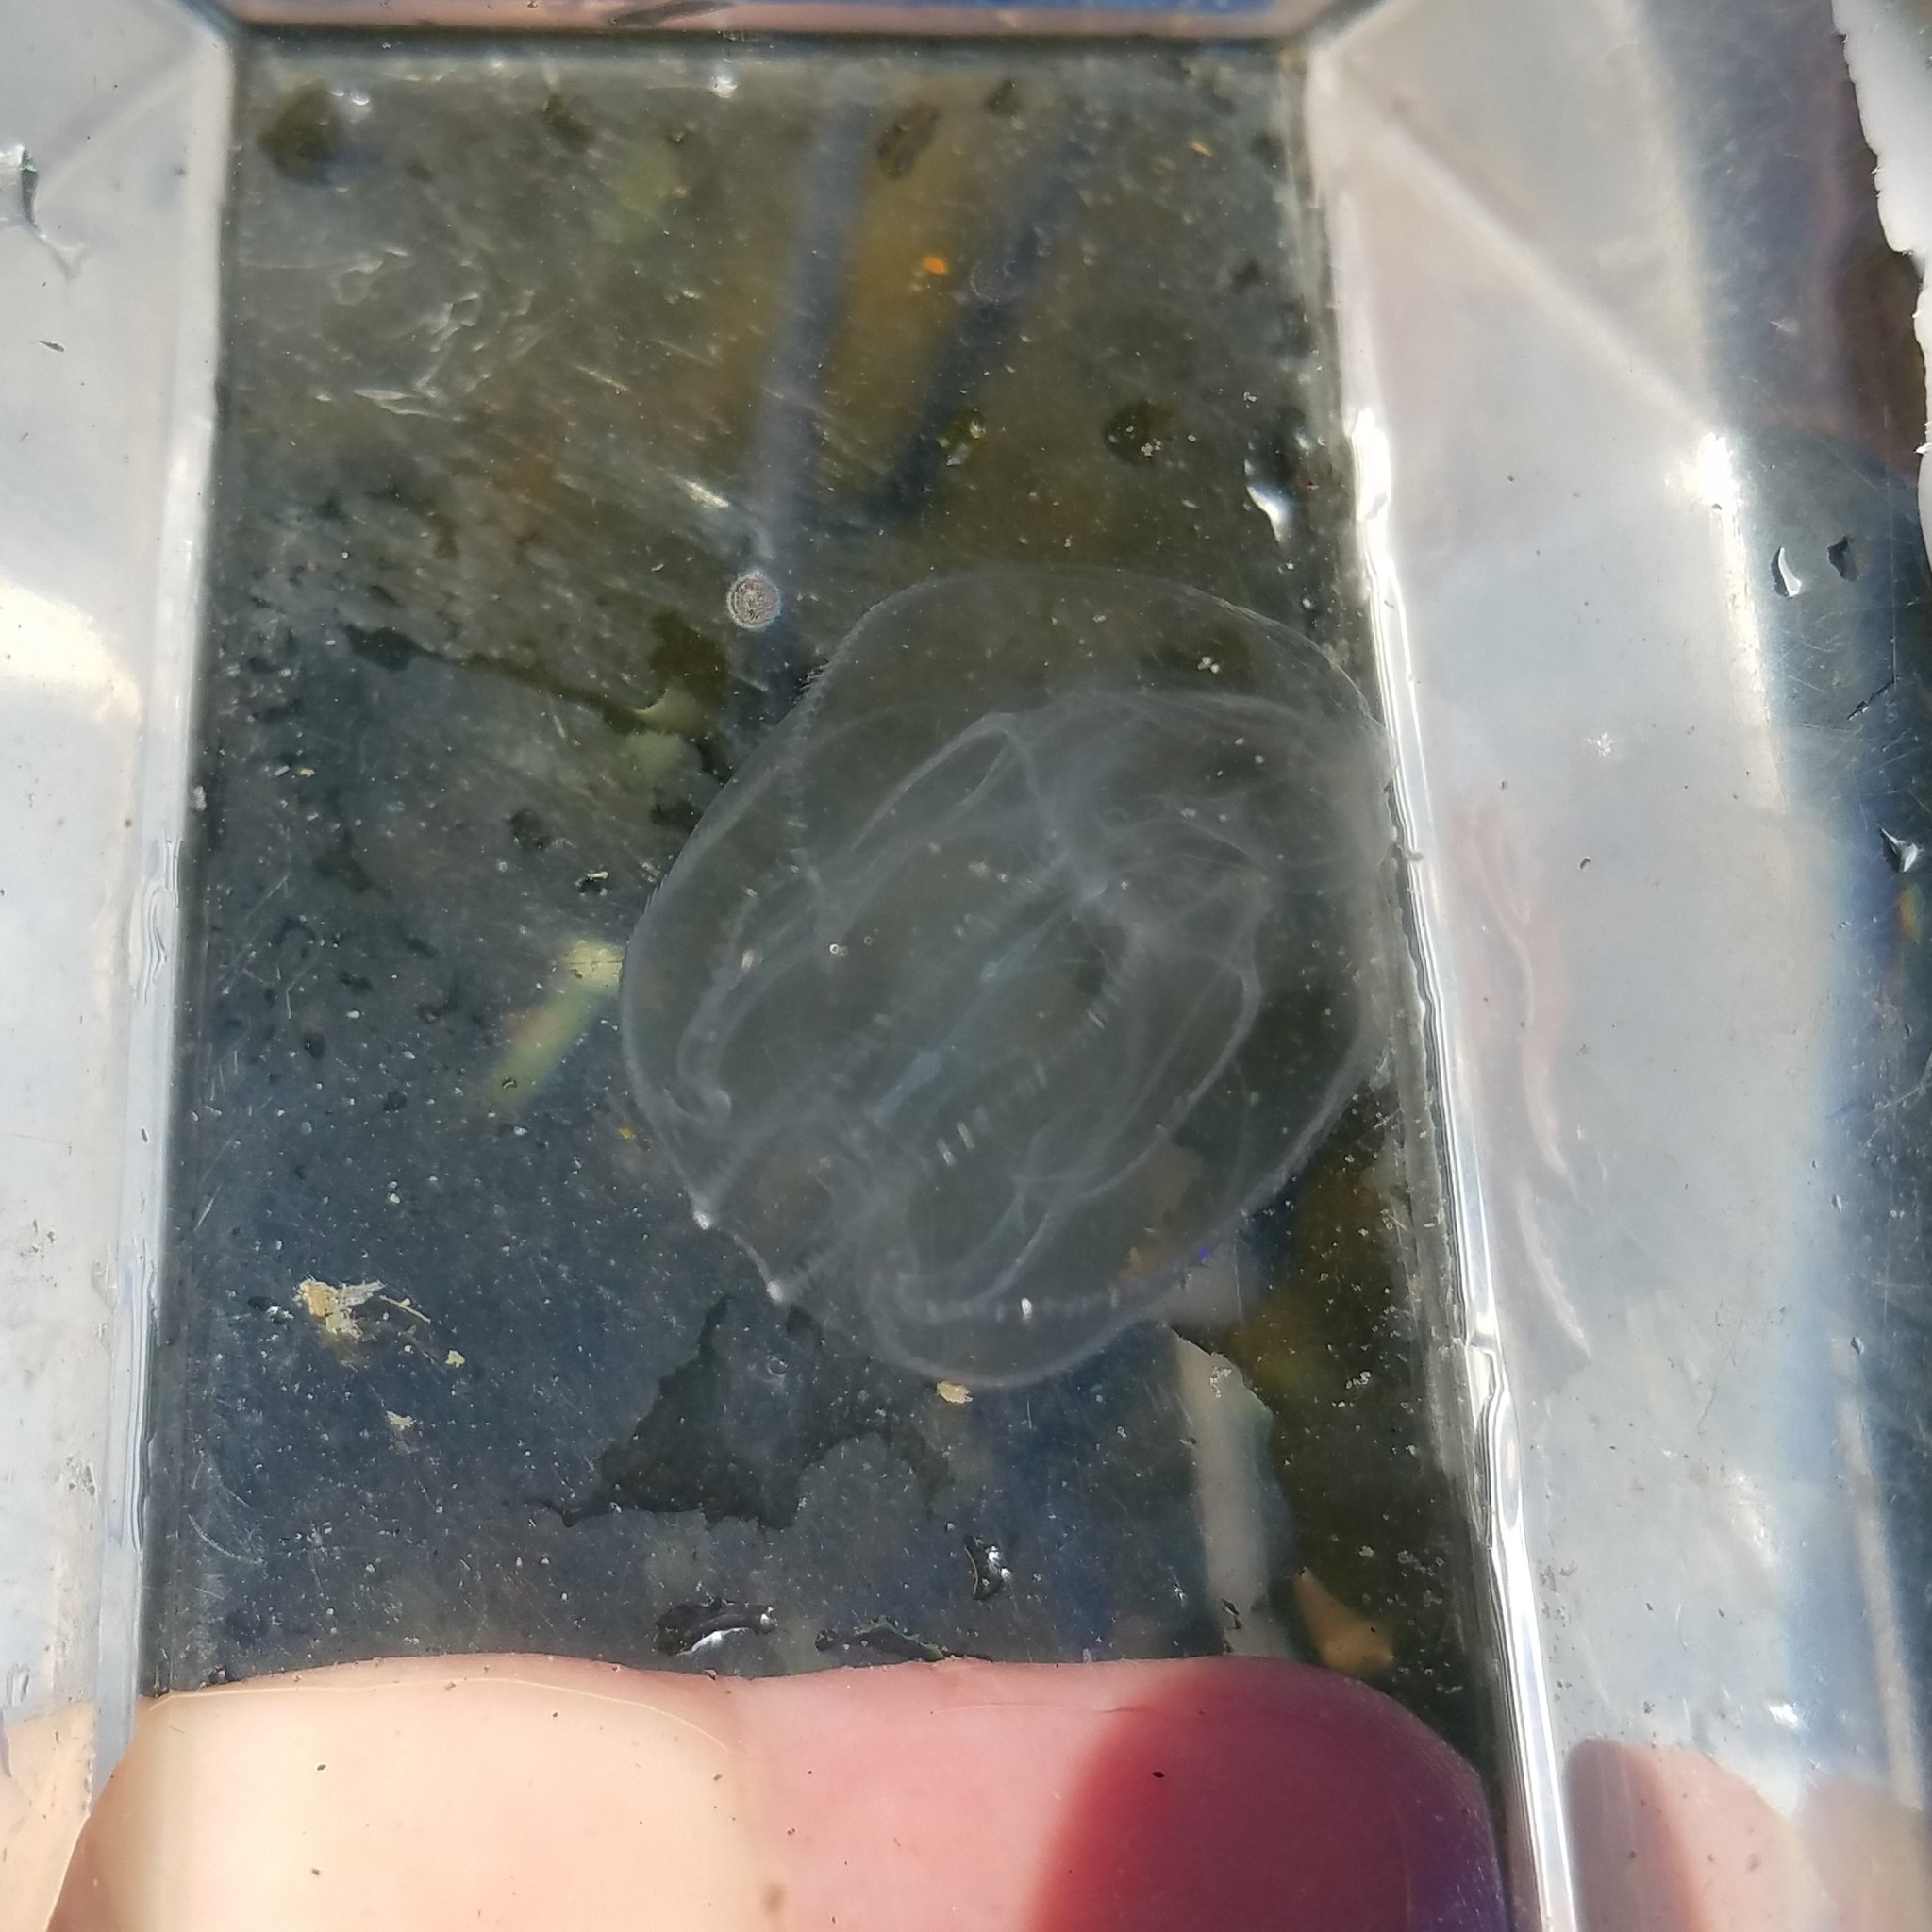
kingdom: Animalia
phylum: Ctenophora
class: Tentaculata
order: Lobata
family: Bolinopsidae
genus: Mnemiopsis
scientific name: Mnemiopsis leidyi
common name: American comb jelly
